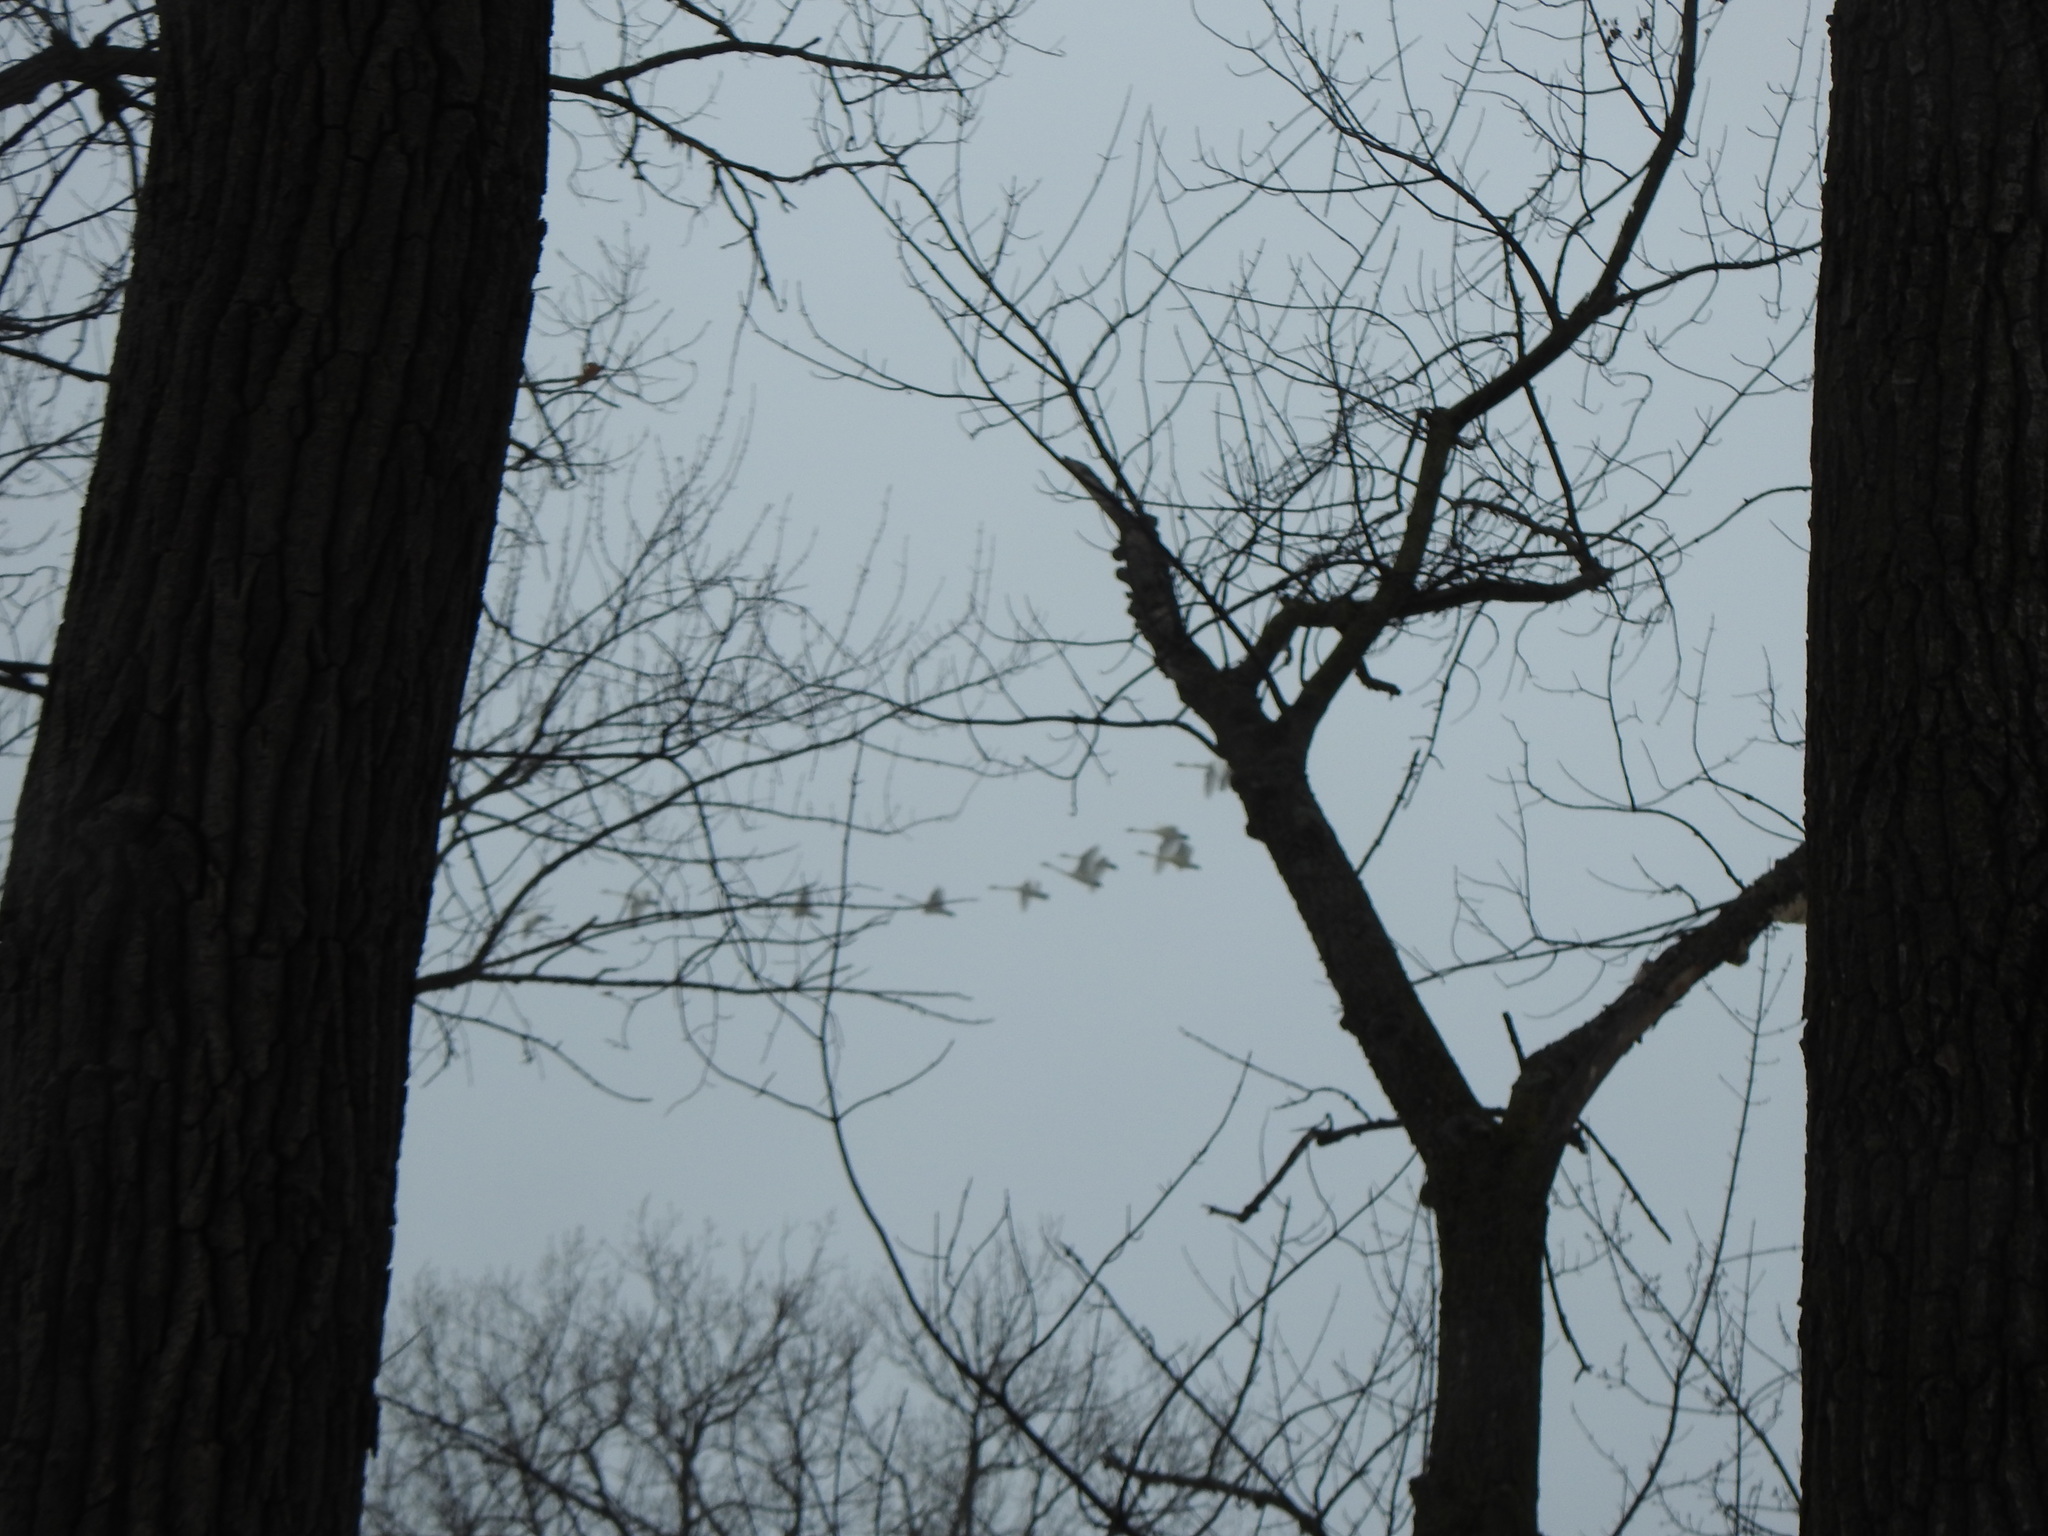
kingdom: Animalia
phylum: Chordata
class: Aves
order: Anseriformes
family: Anatidae
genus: Cygnus
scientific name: Cygnus buccinator
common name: Trumpeter swan
